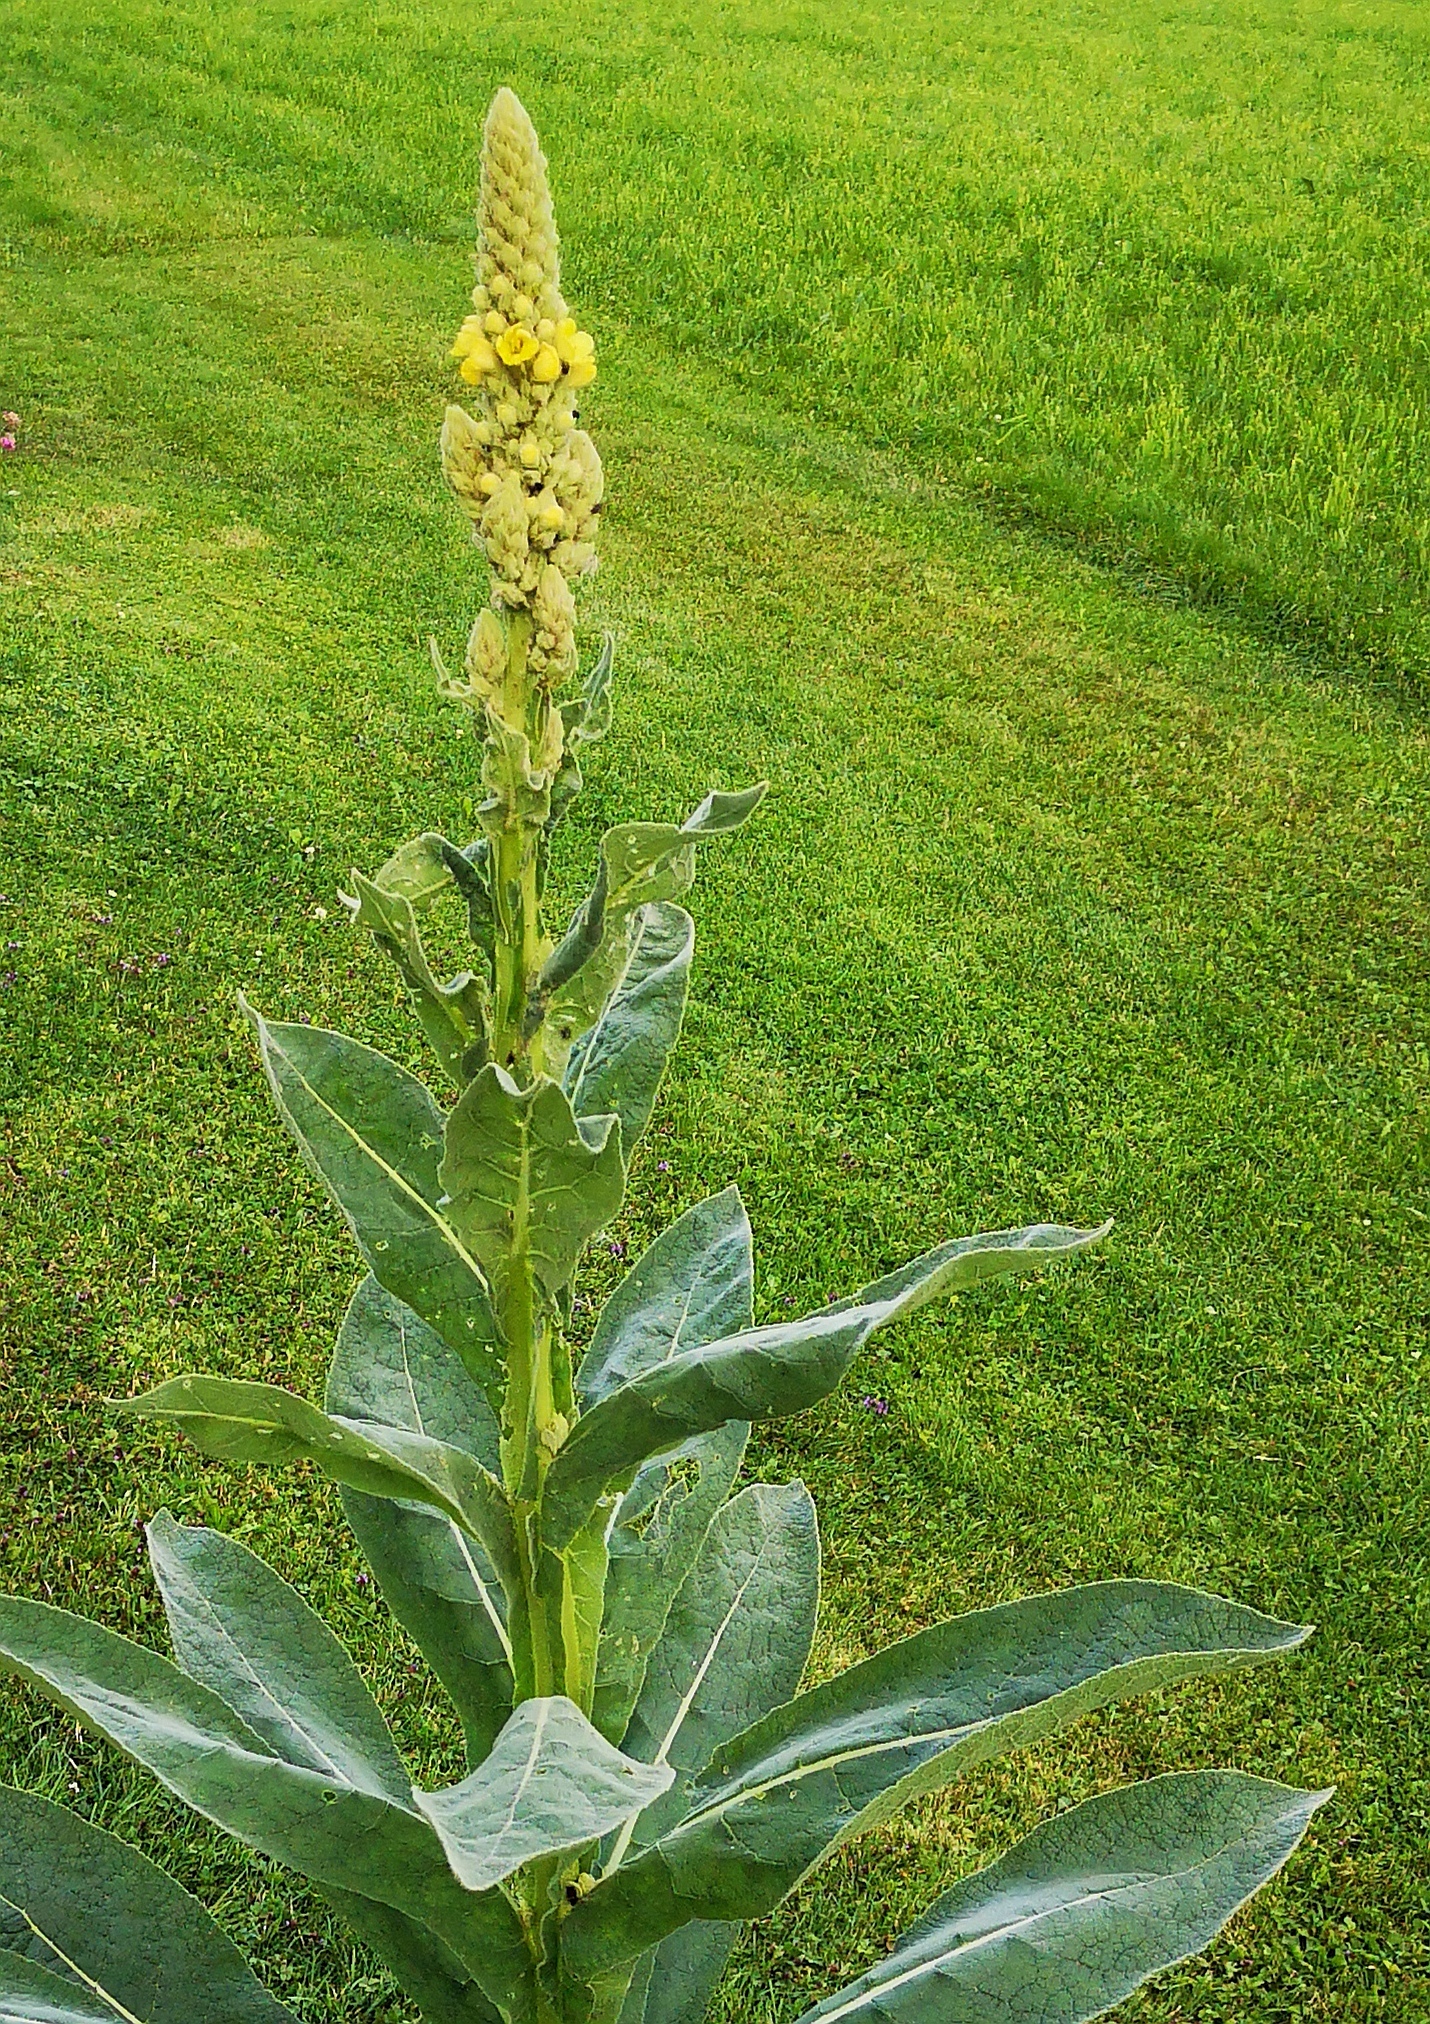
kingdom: Plantae
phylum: Tracheophyta
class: Magnoliopsida
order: Lamiales
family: Scrophulariaceae
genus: Verbascum
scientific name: Verbascum thapsus
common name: Common mullein
